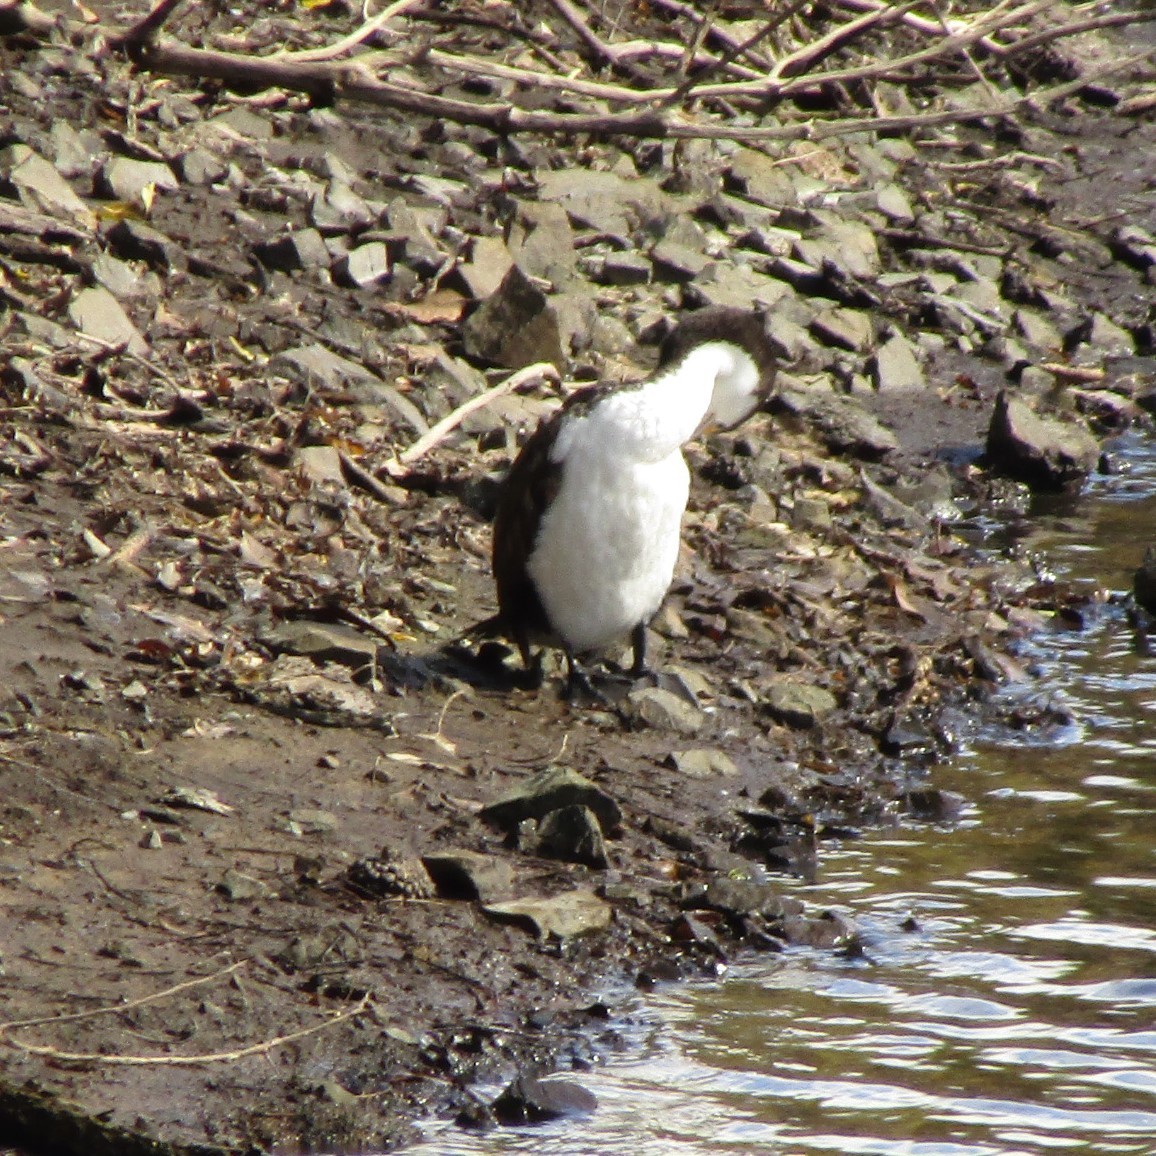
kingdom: Animalia
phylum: Chordata
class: Aves
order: Suliformes
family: Phalacrocoracidae
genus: Phalacrocorax
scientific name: Phalacrocorax varius
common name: Pied cormorant
